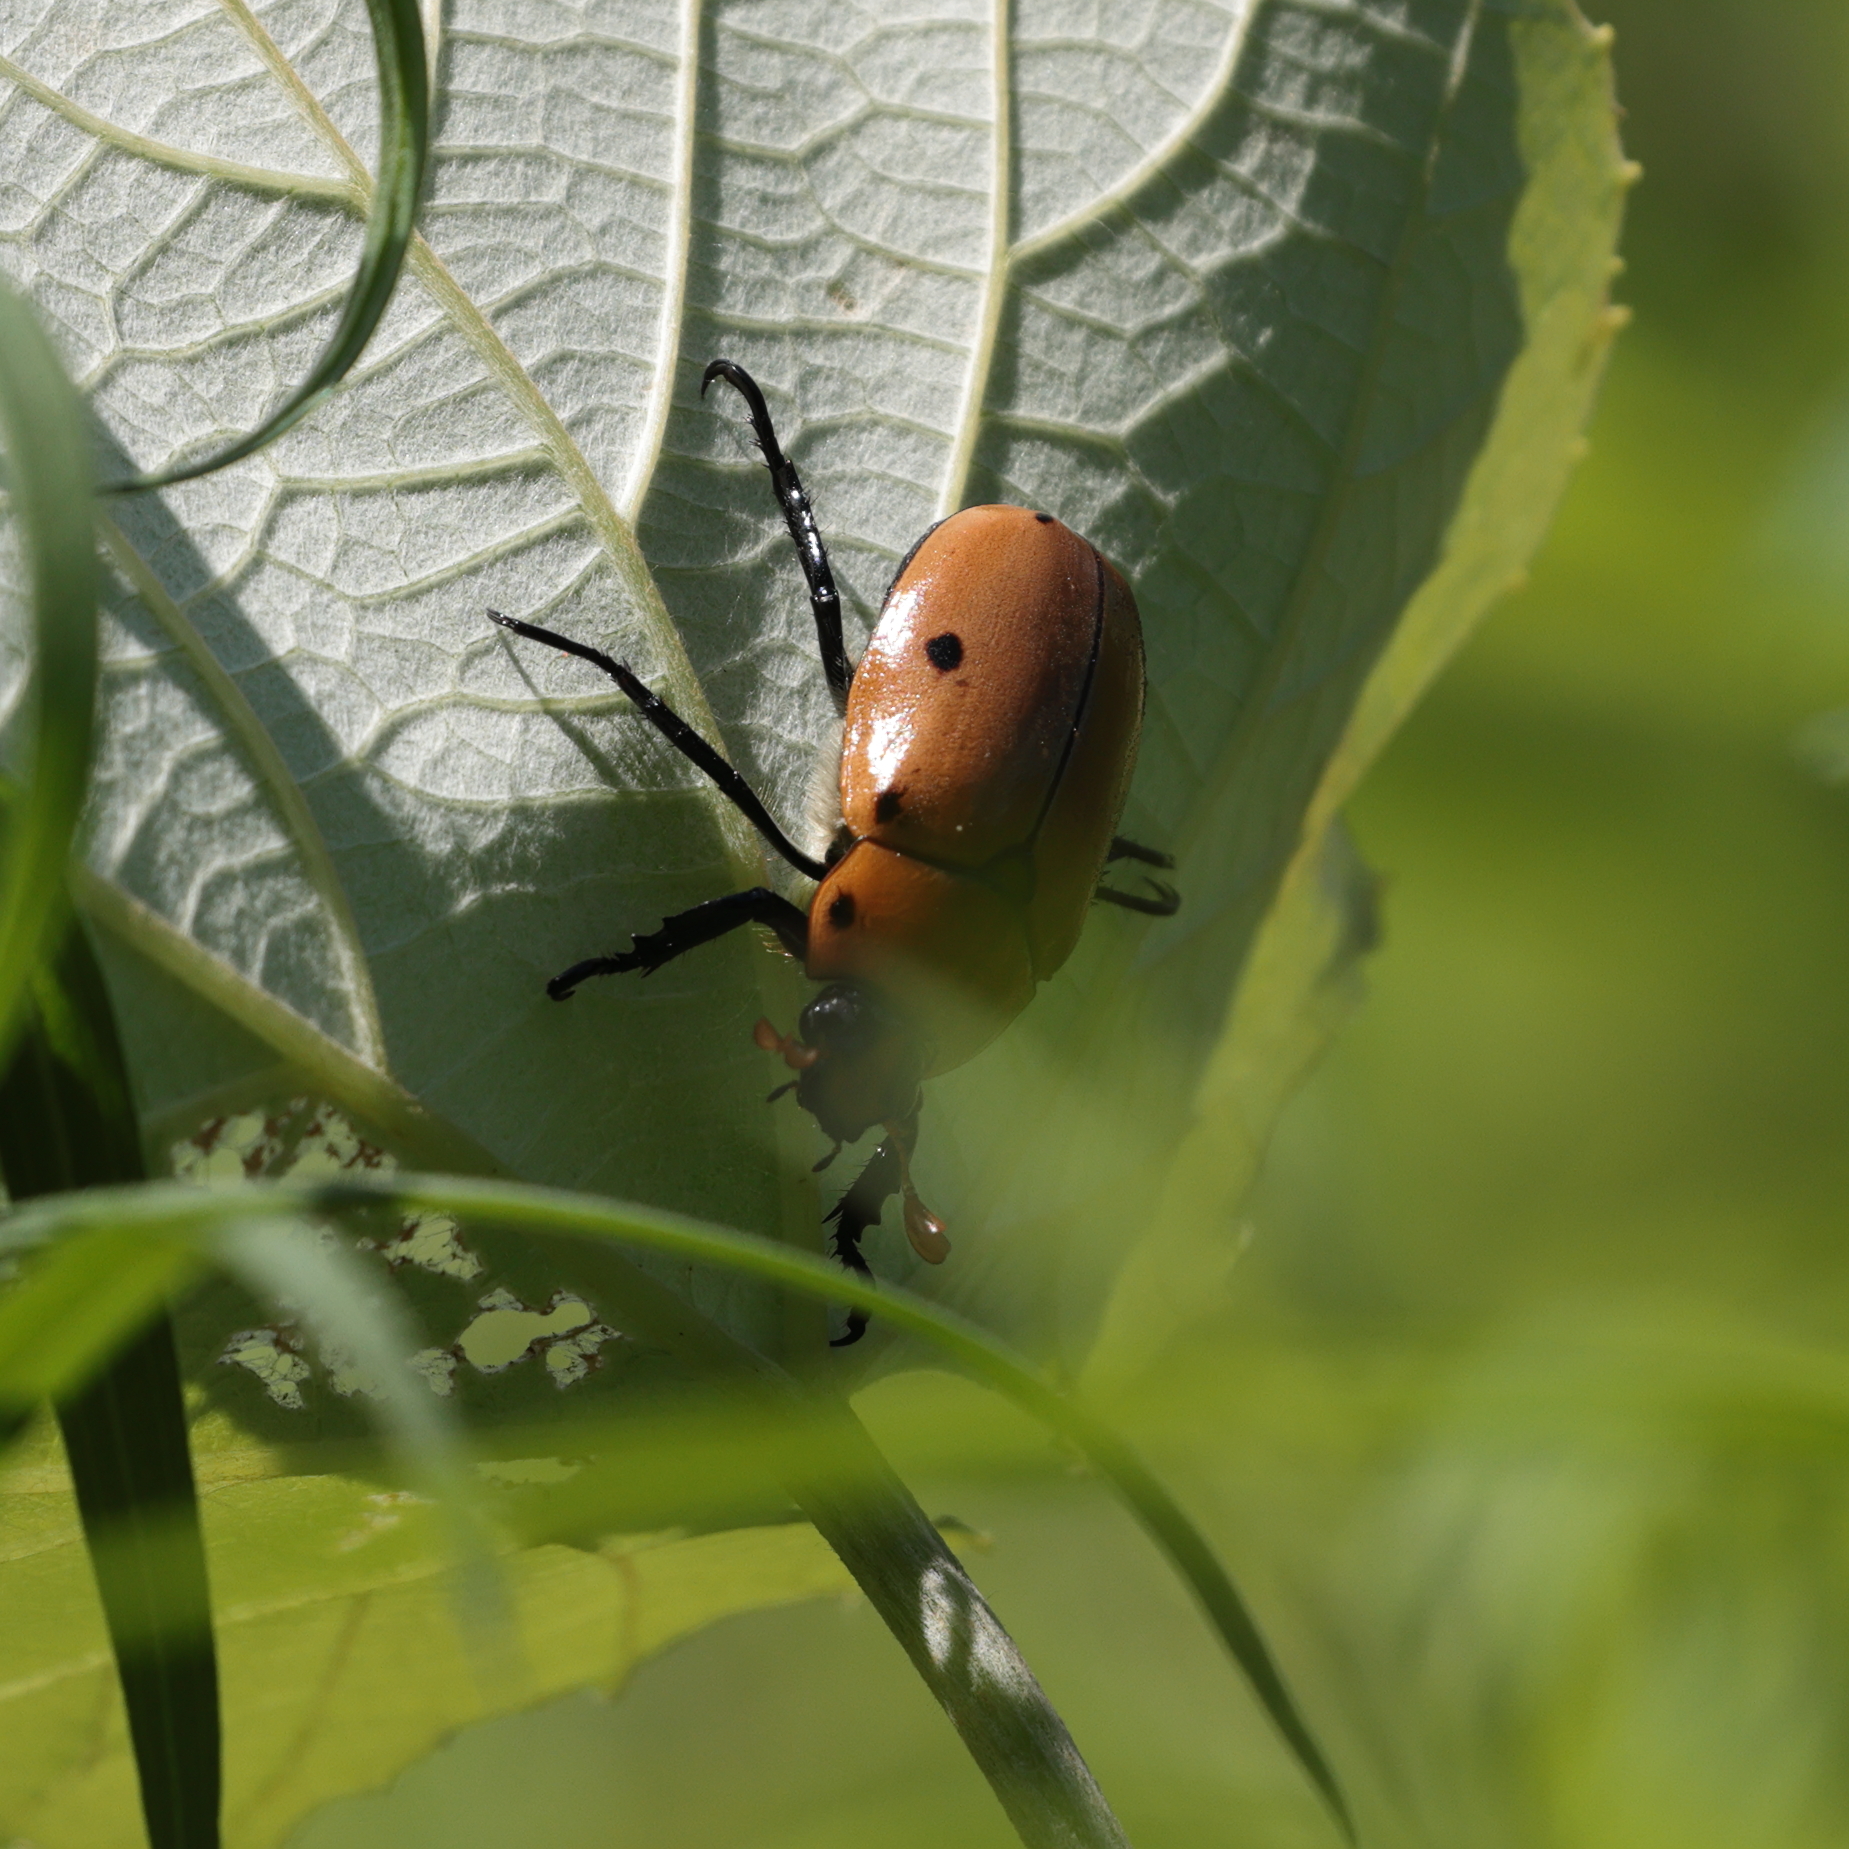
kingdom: Animalia
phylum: Arthropoda
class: Insecta
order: Coleoptera
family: Scarabaeidae
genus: Pelidnota
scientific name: Pelidnota punctata
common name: Grapevine beetle
